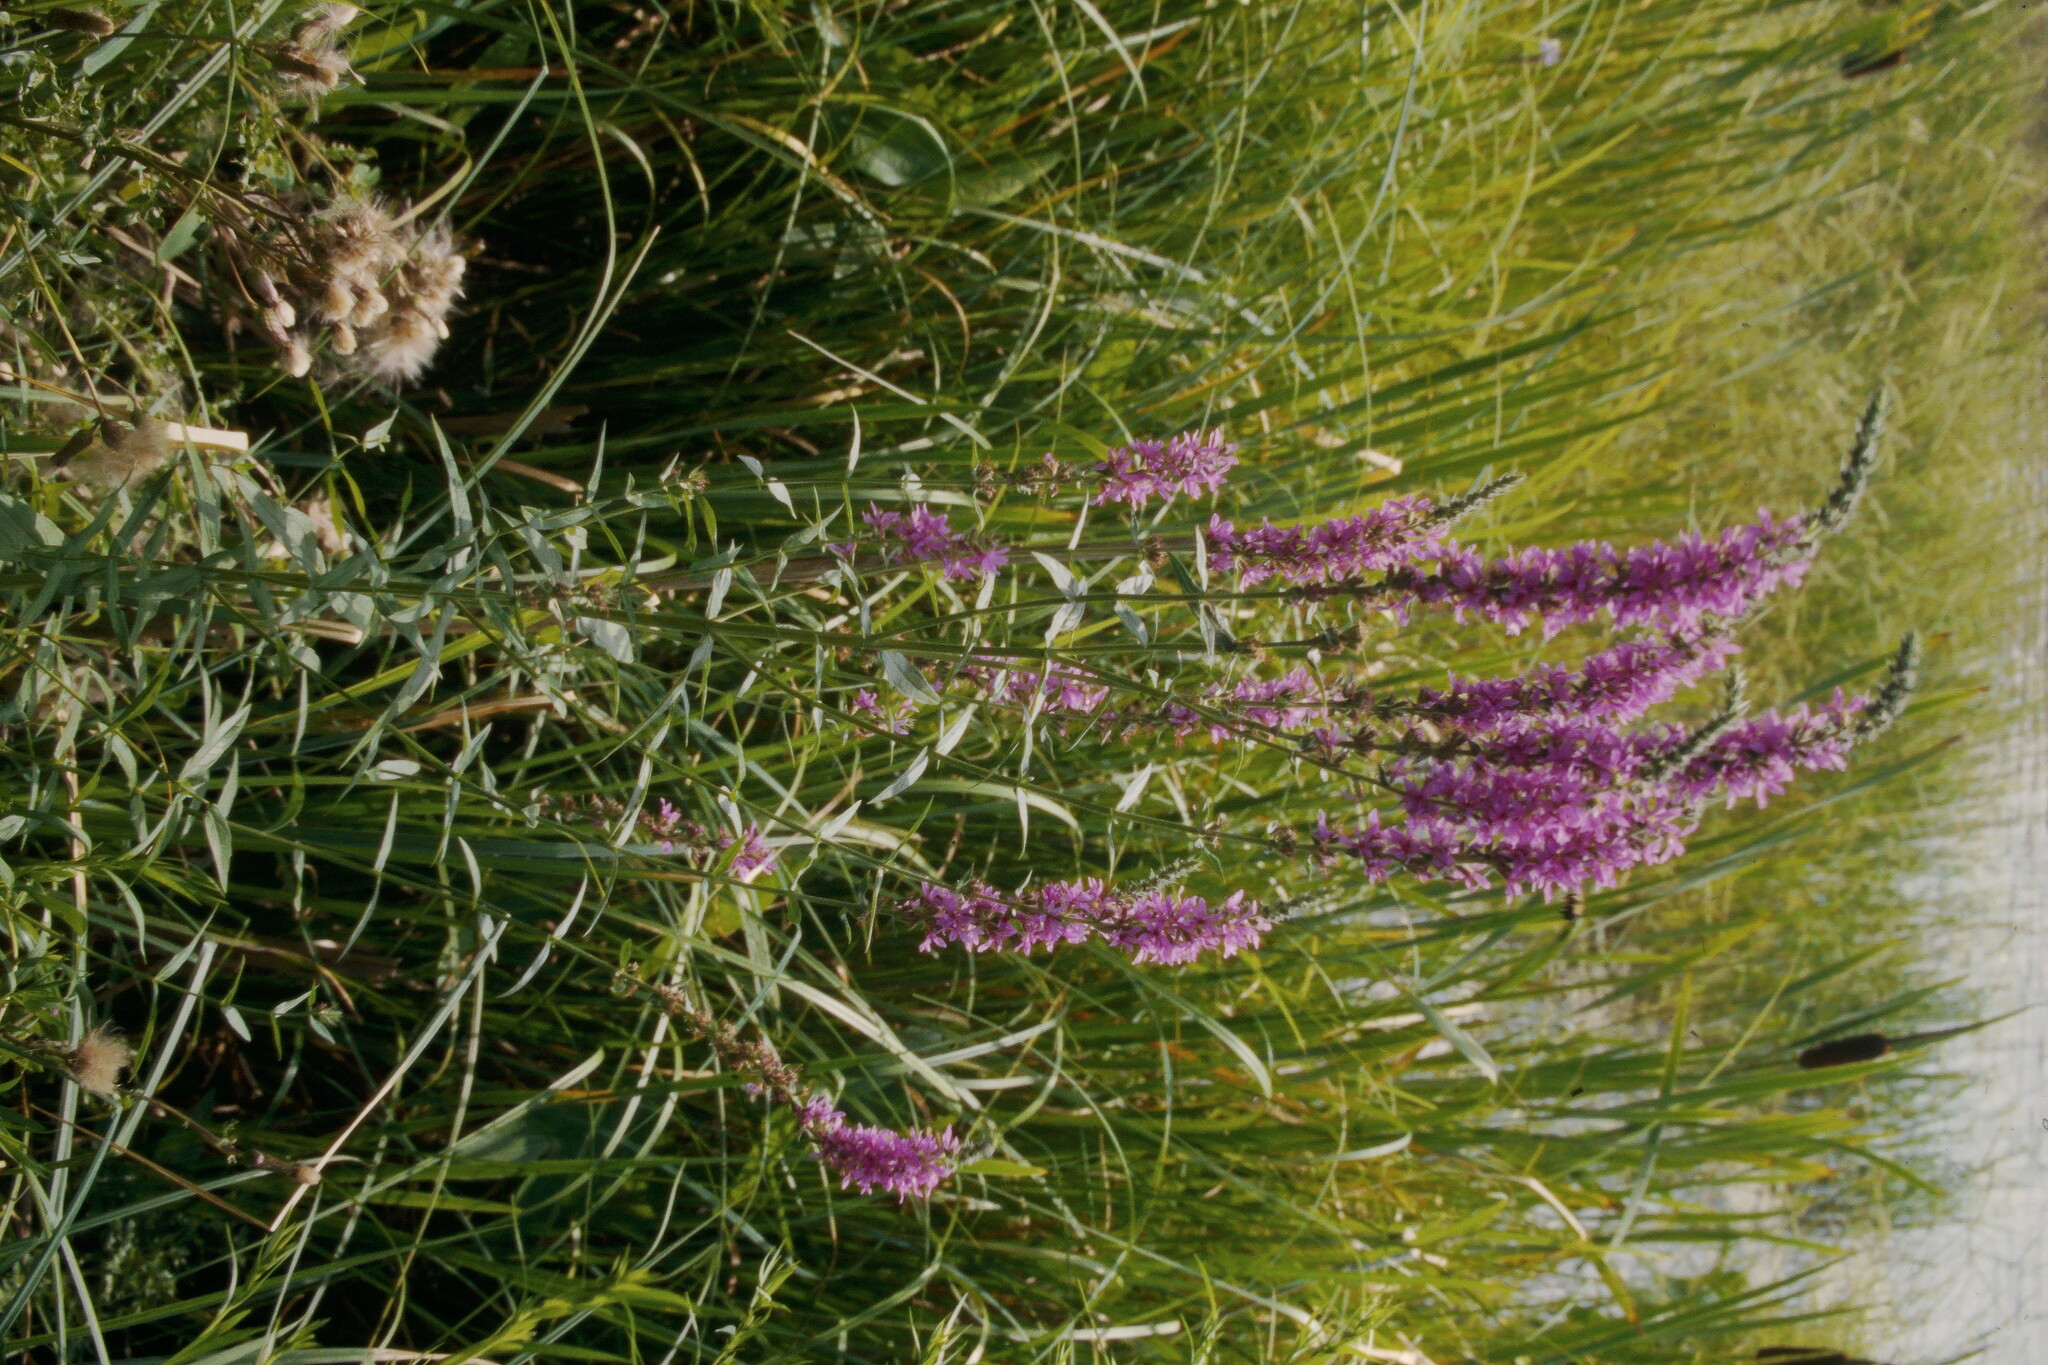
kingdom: Plantae
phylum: Tracheophyta
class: Magnoliopsida
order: Myrtales
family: Lythraceae
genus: Lythrum
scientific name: Lythrum salicaria
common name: Purple loosestrife
